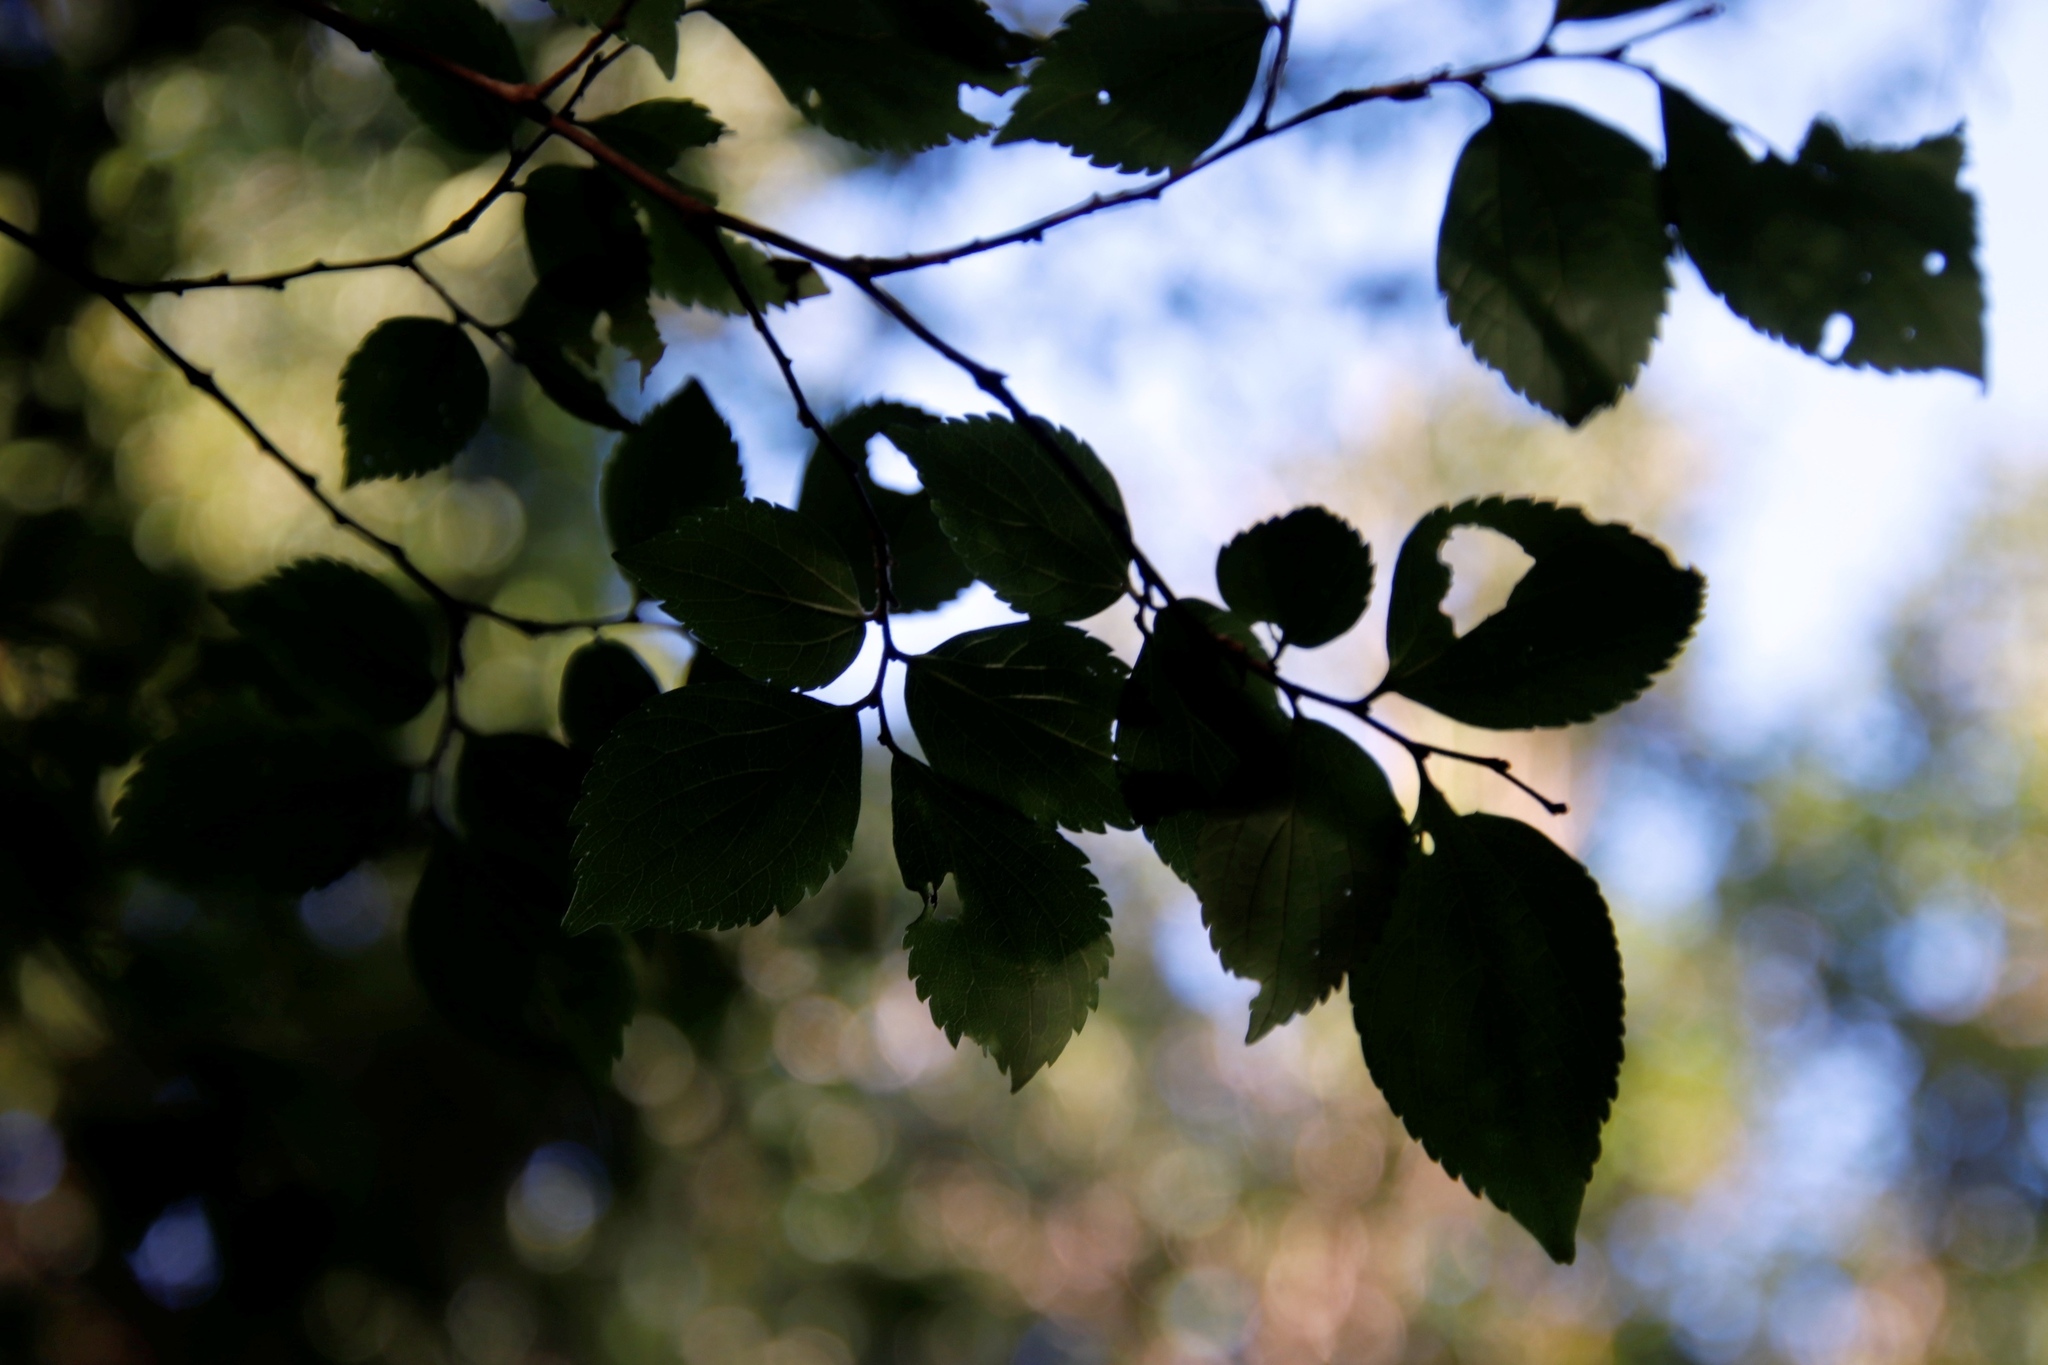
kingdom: Plantae
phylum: Tracheophyta
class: Magnoliopsida
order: Rosales
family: Cannabaceae
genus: Celtis
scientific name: Celtis africana
